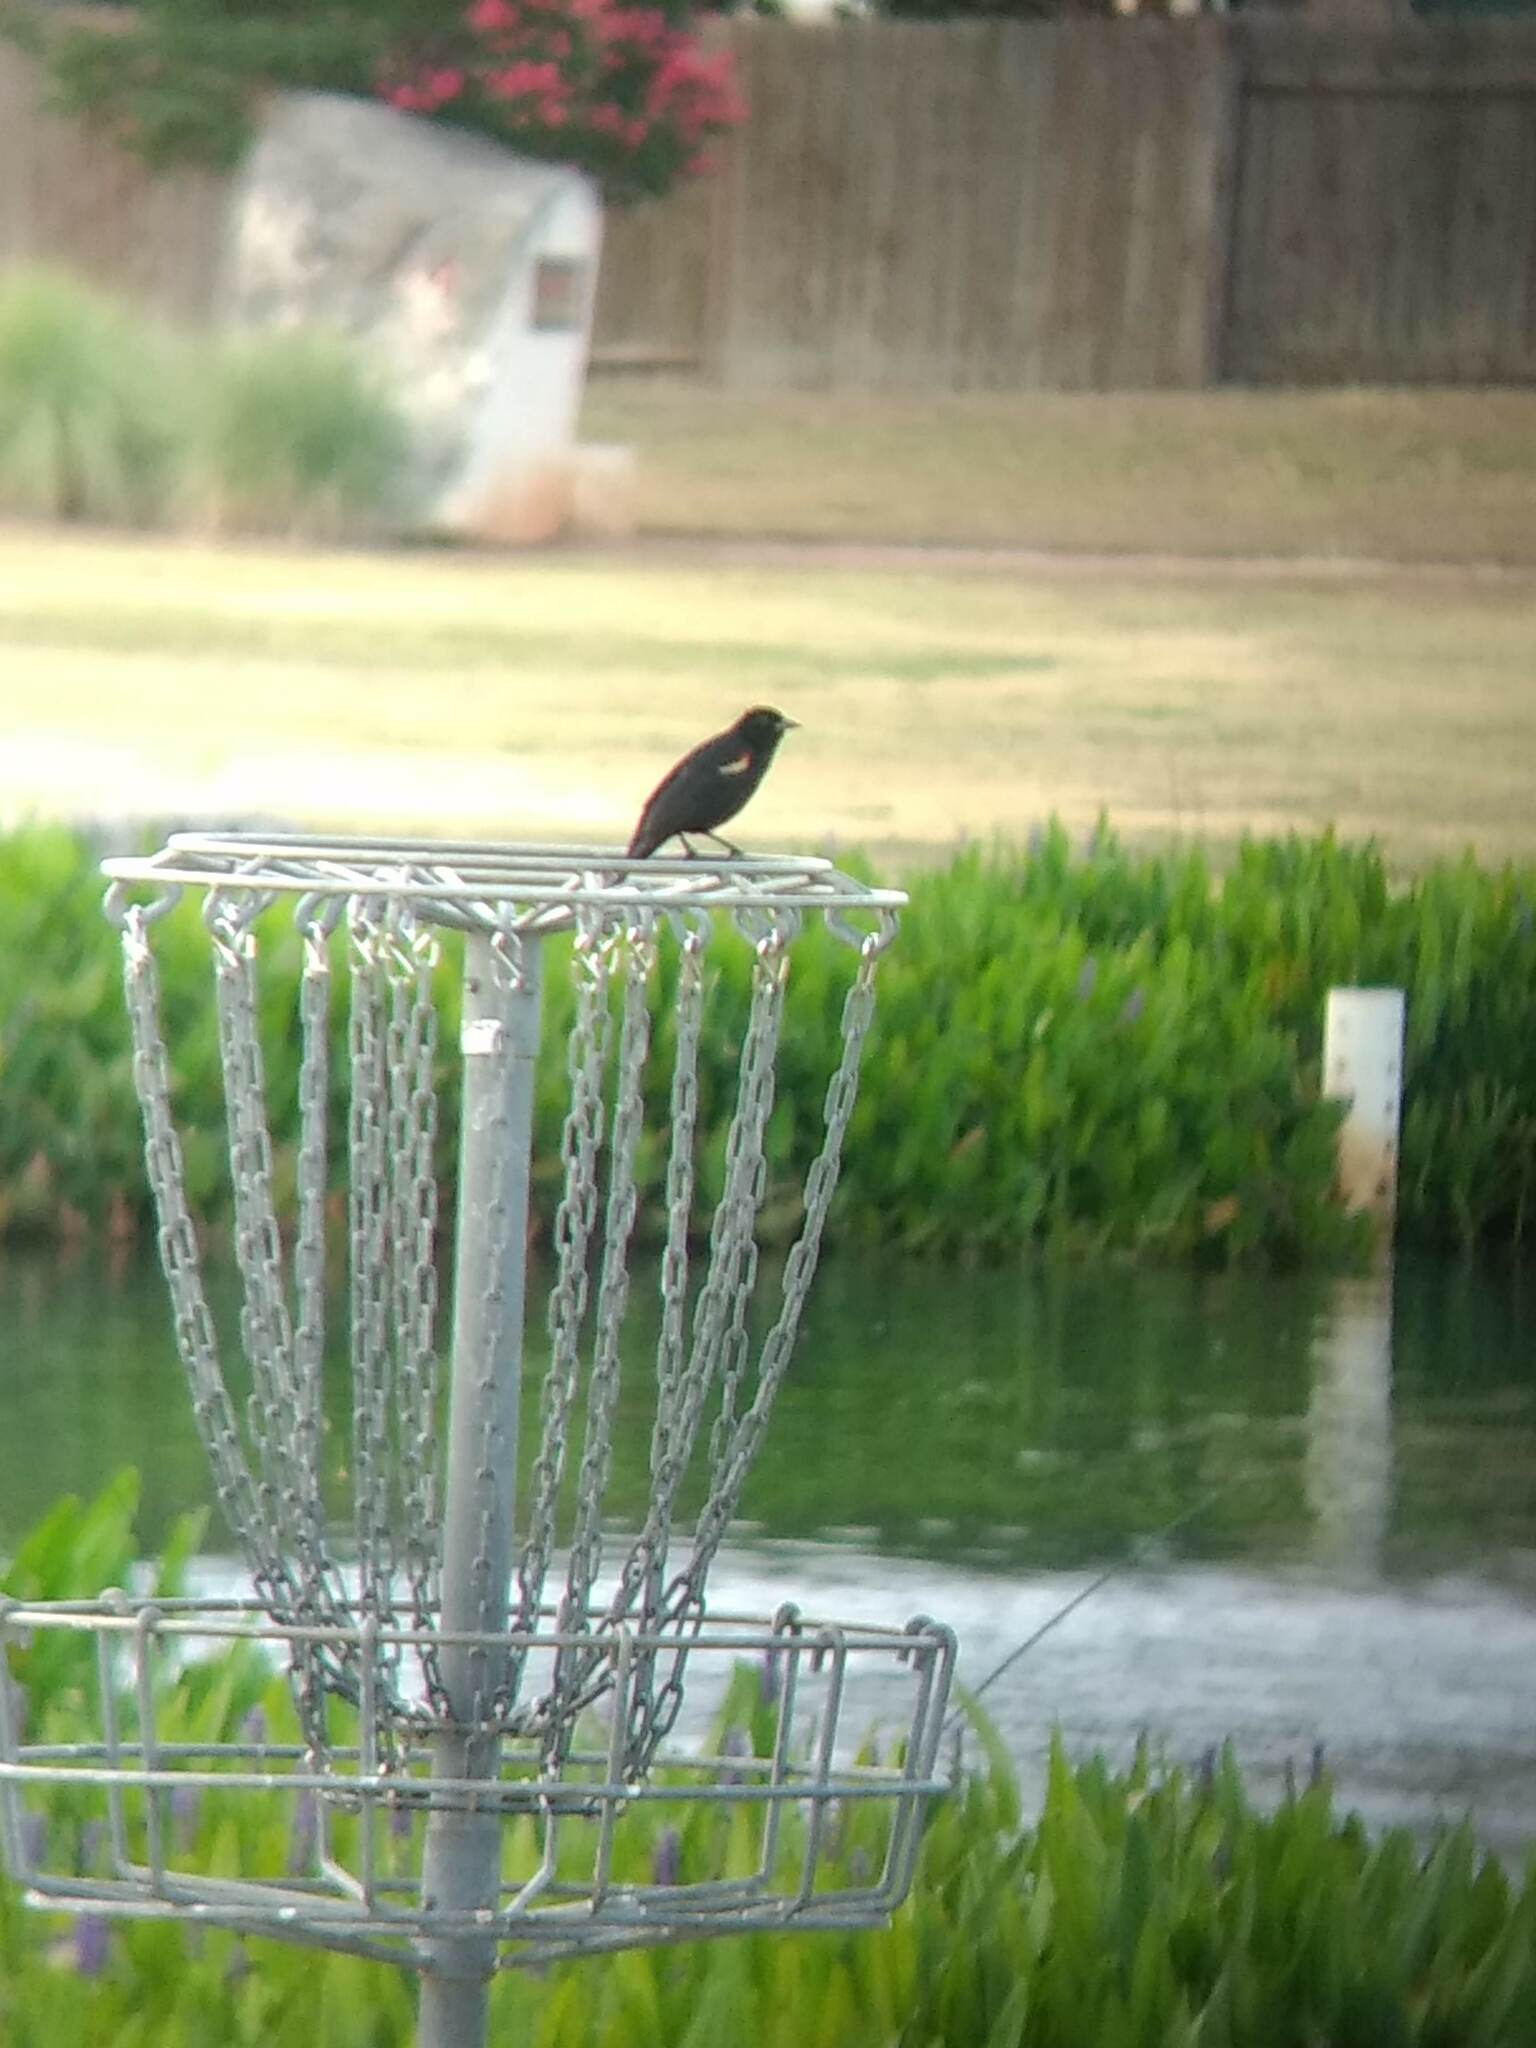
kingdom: Animalia
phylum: Chordata
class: Aves
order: Passeriformes
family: Icteridae
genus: Agelaius
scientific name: Agelaius phoeniceus
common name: Red-winged blackbird
